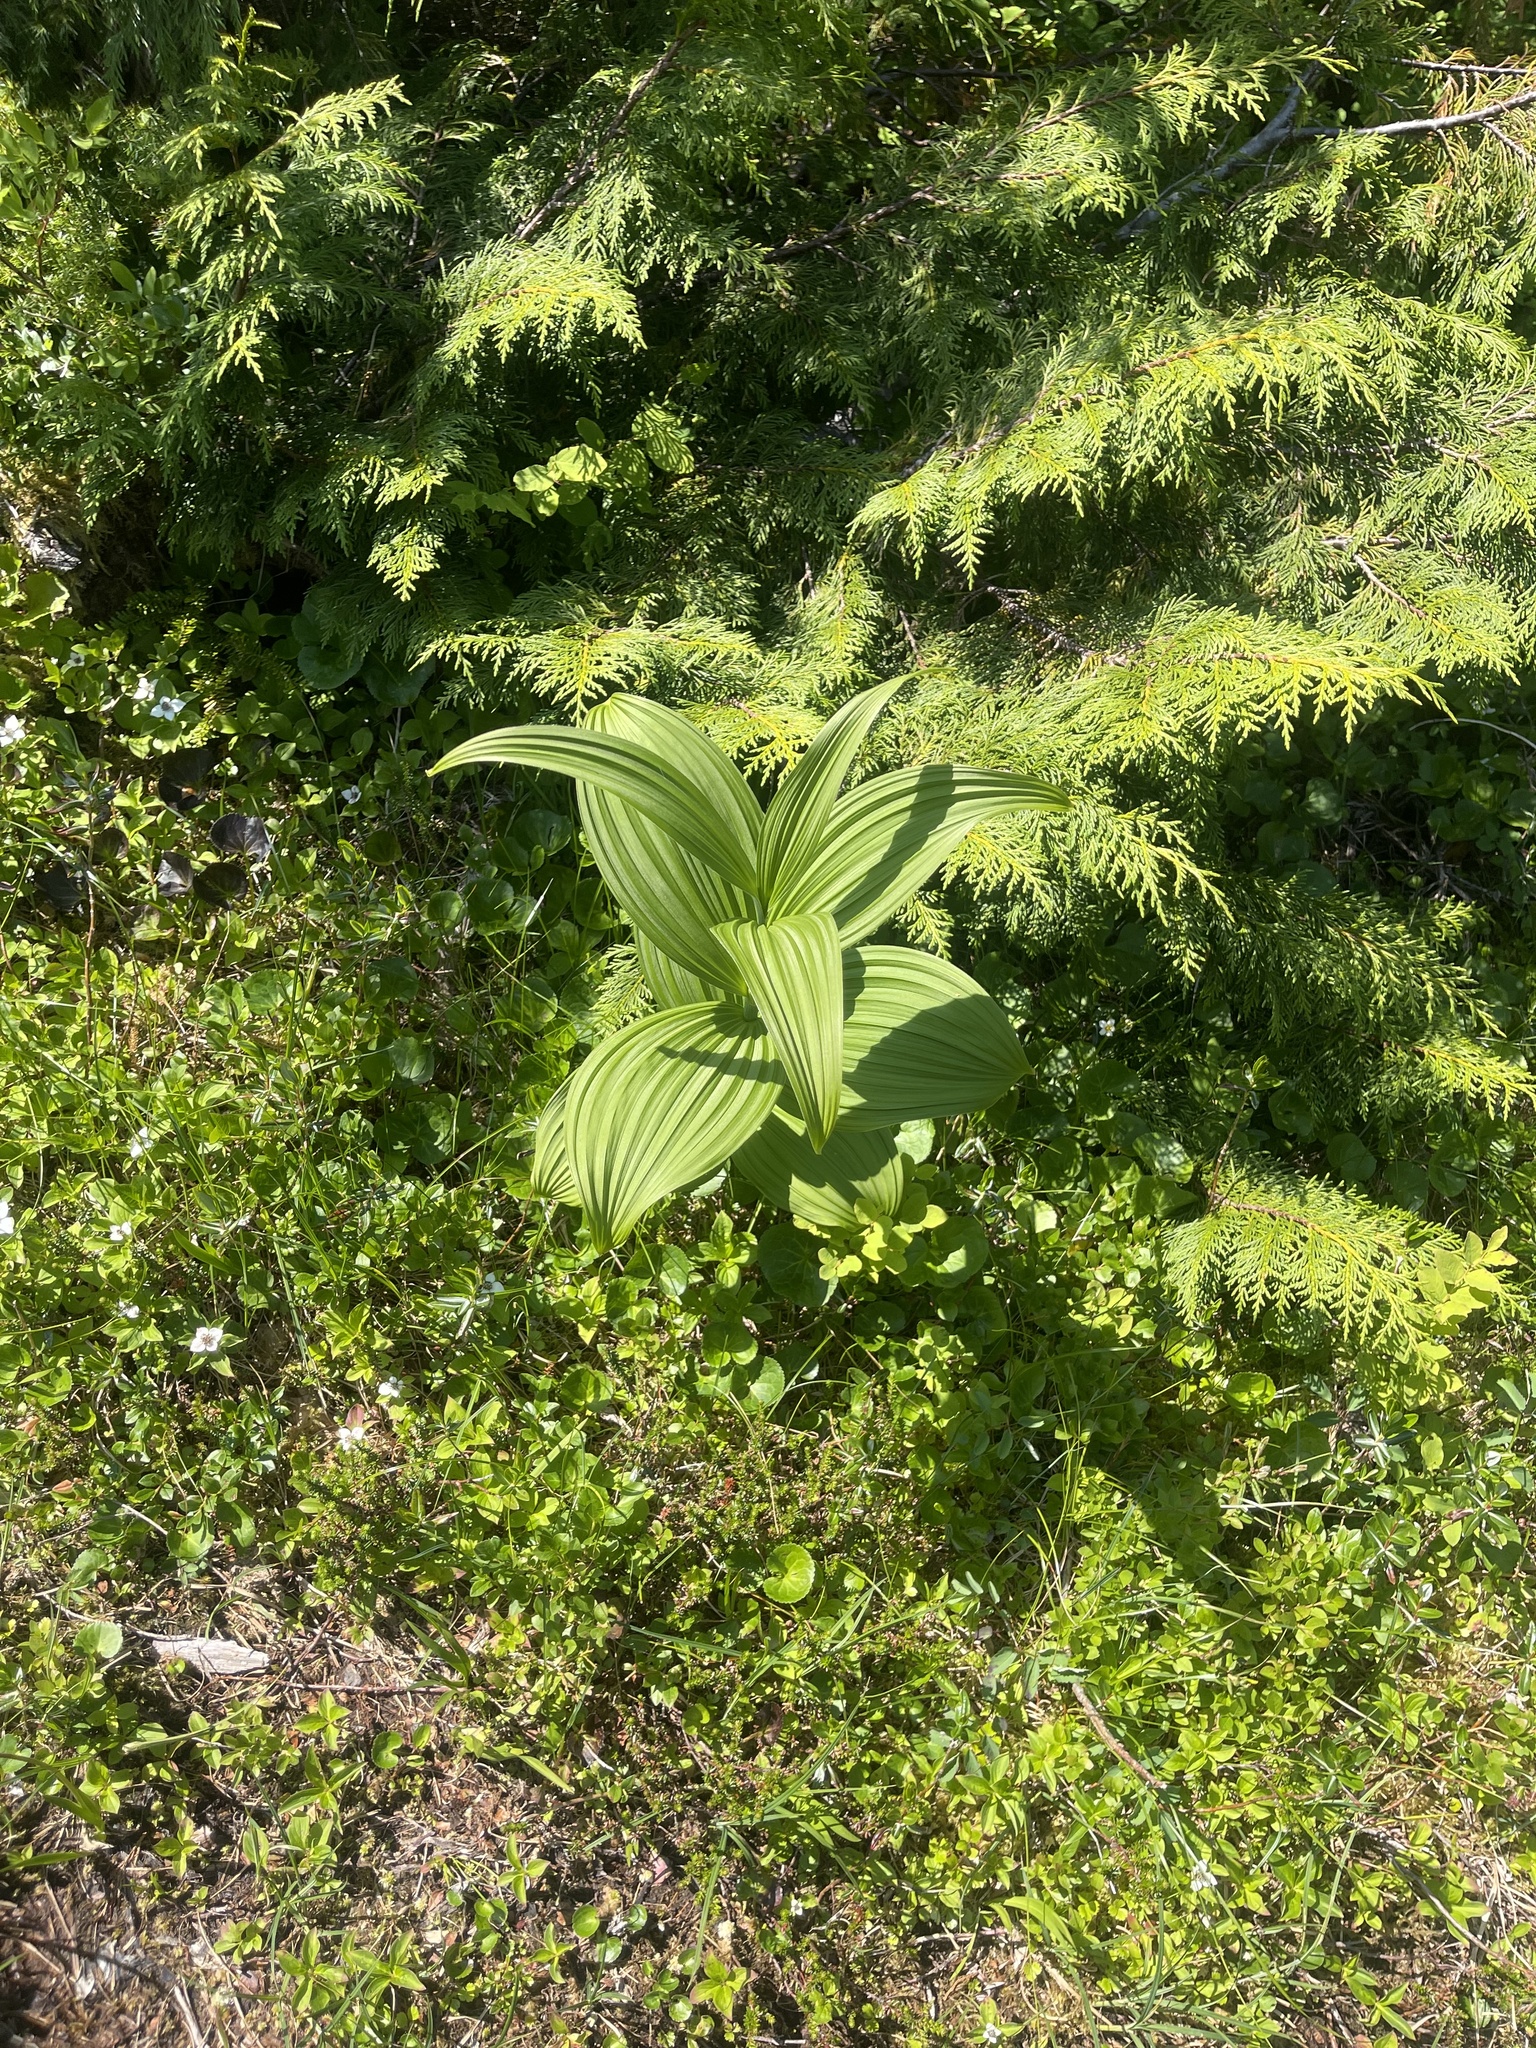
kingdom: Plantae
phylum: Tracheophyta
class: Liliopsida
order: Liliales
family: Melanthiaceae
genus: Veratrum
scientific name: Veratrum viride
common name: American false hellebore
